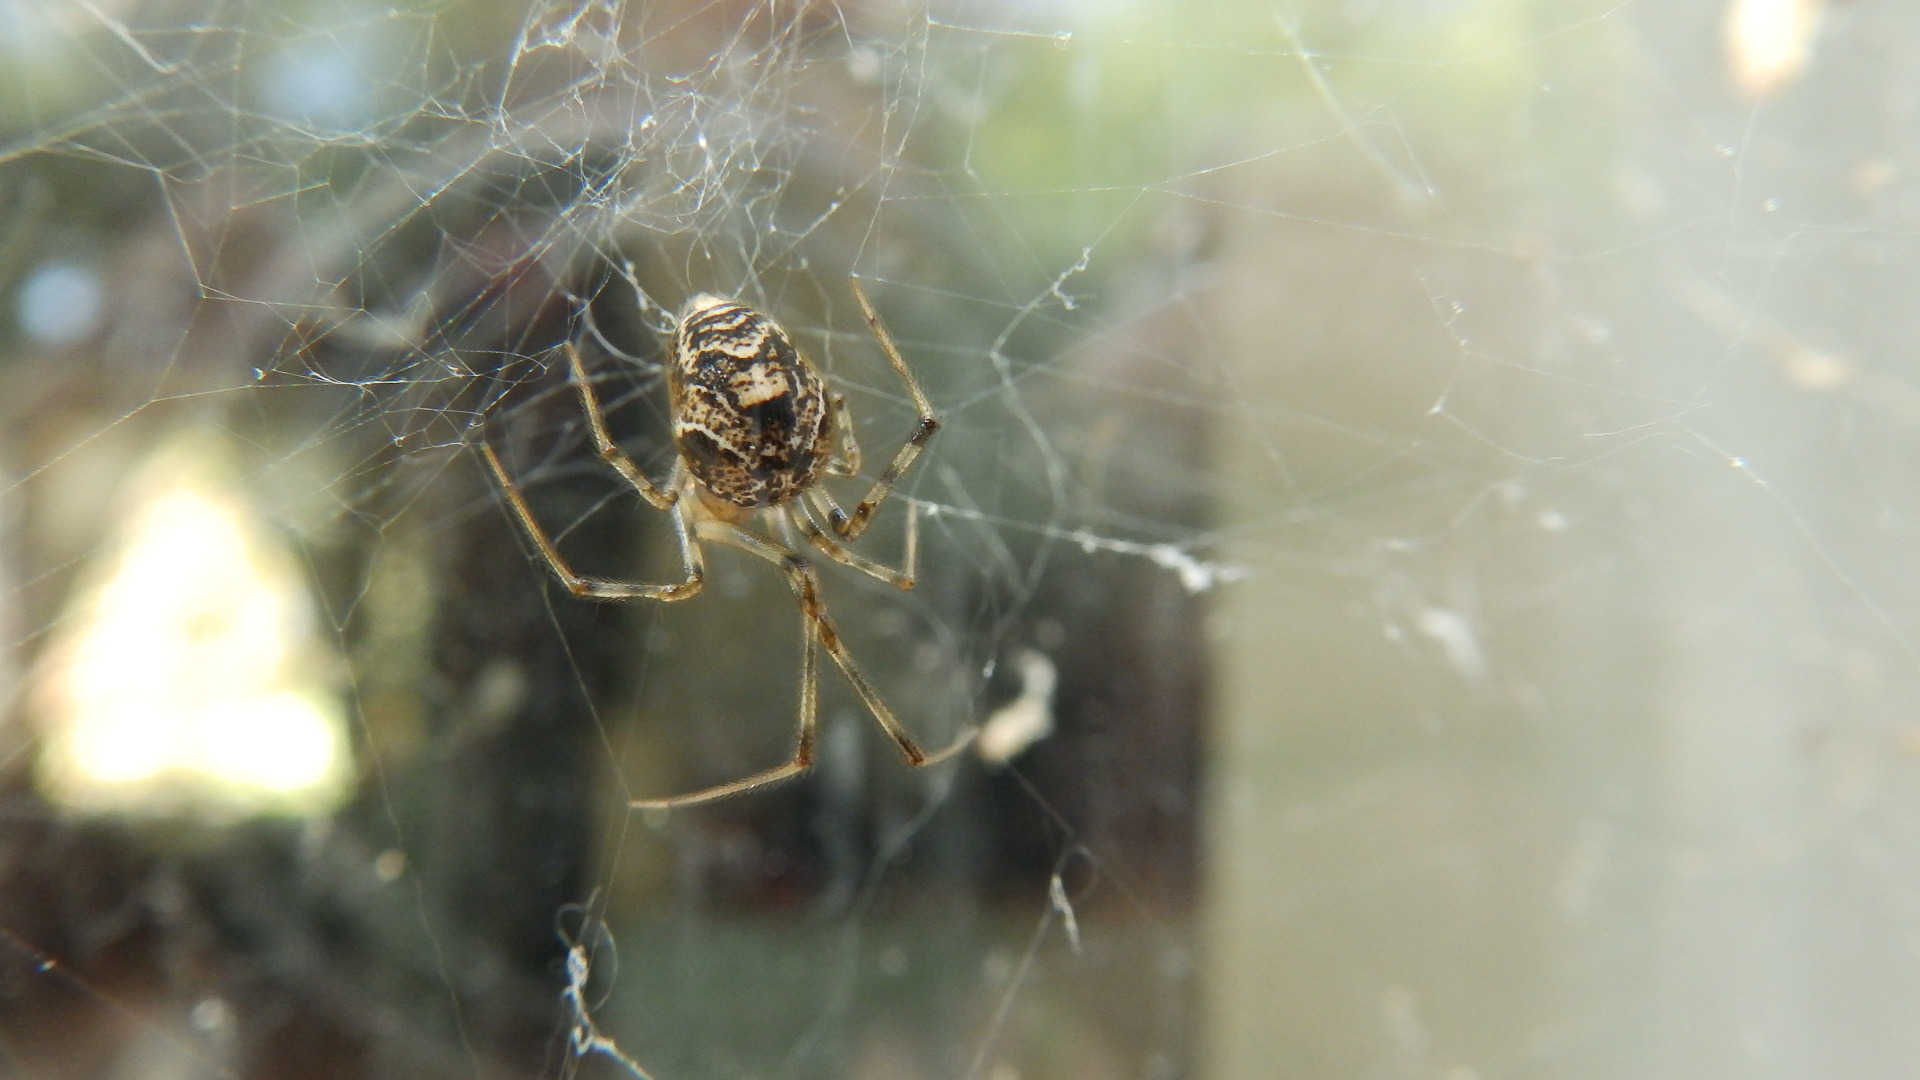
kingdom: Animalia
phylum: Arthropoda
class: Arachnida
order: Araneae
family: Theridiidae
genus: Parasteatoda
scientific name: Parasteatoda tepidariorum
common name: Common house spider
